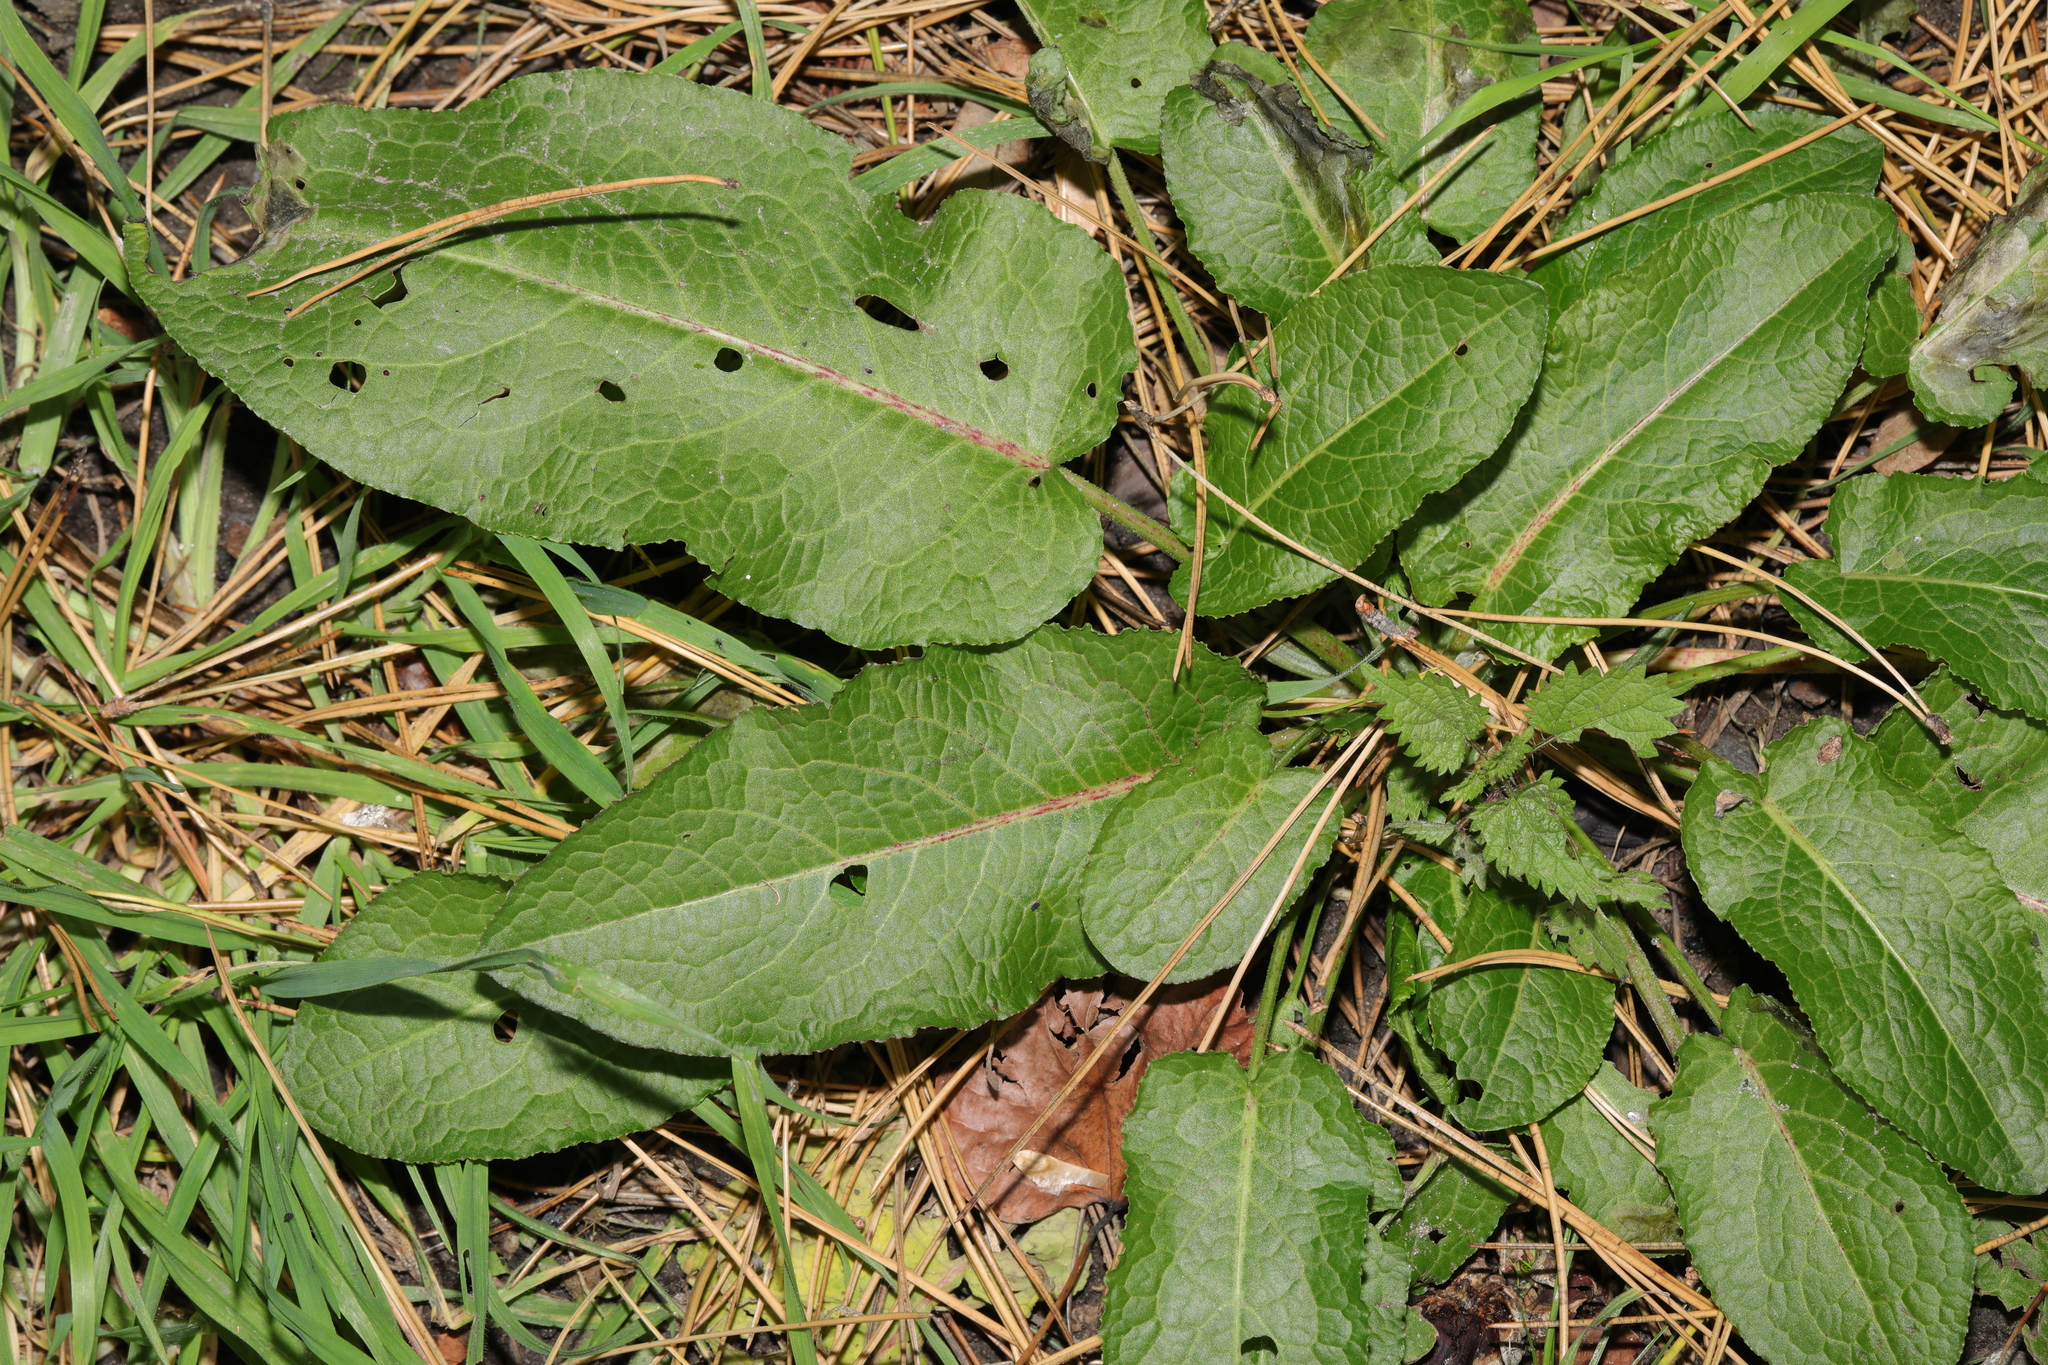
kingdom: Plantae
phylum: Tracheophyta
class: Magnoliopsida
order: Caryophyllales
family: Polygonaceae
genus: Rumex
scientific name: Rumex obtusifolius
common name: Bitter dock
